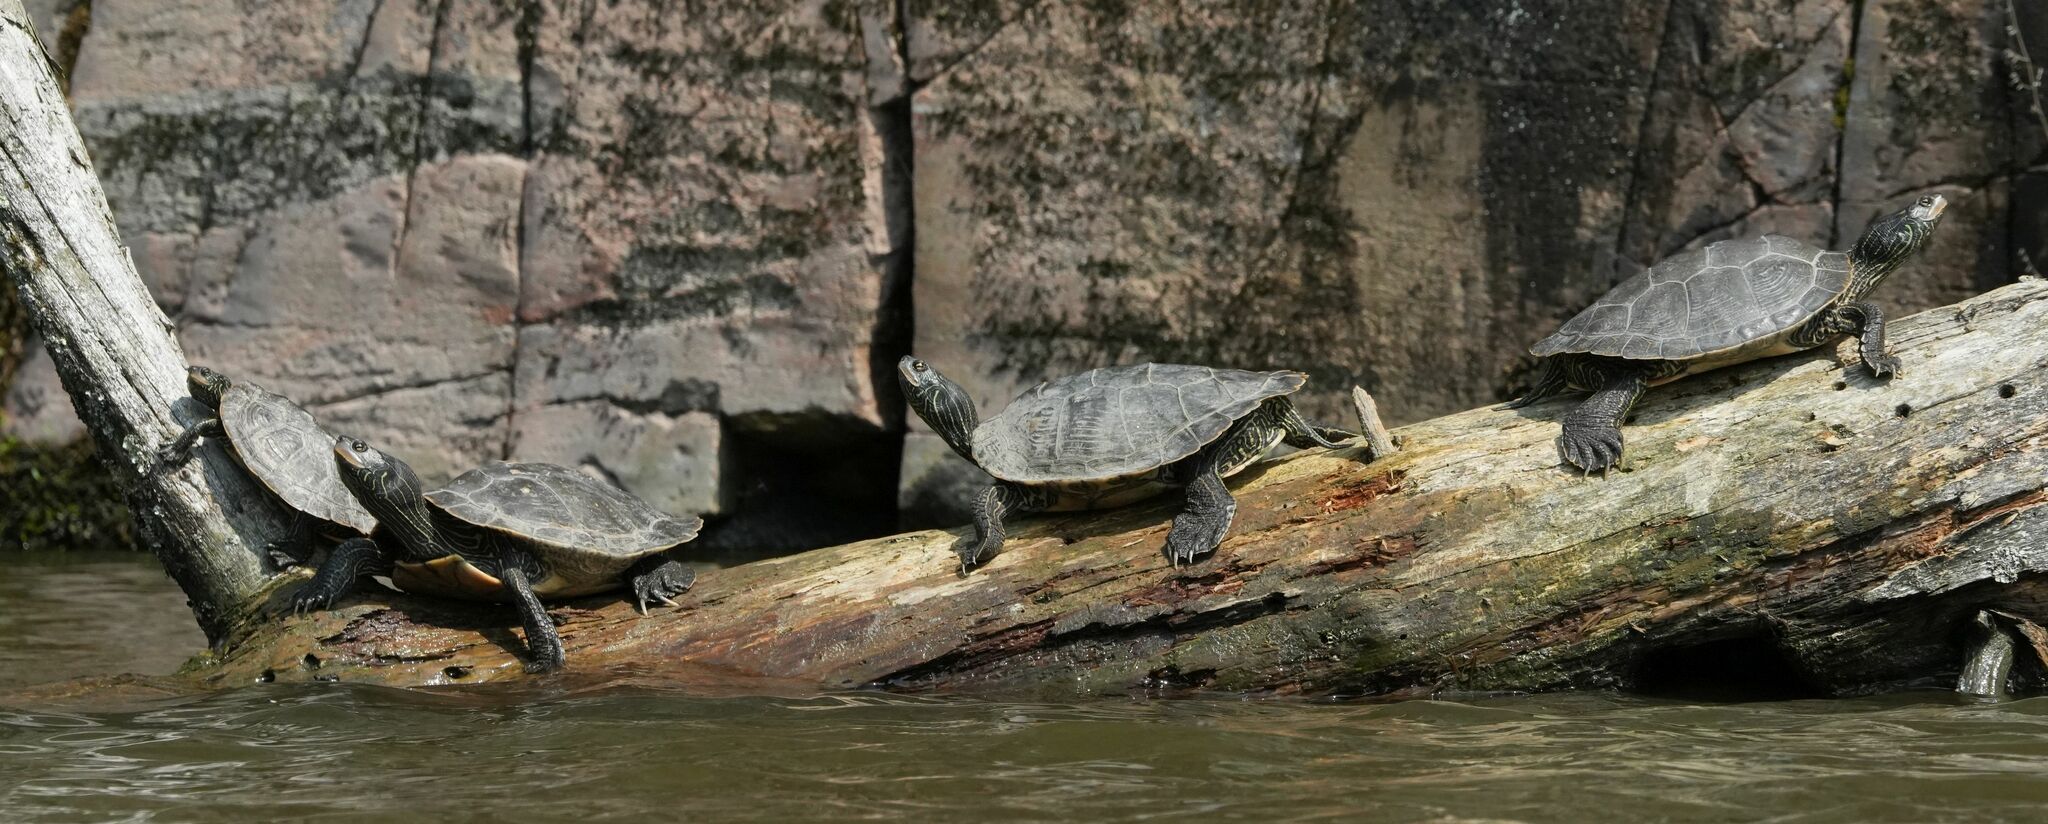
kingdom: Animalia
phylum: Chordata
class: Testudines
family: Emydidae
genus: Graptemys
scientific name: Graptemys geographica
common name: Common map turtle
